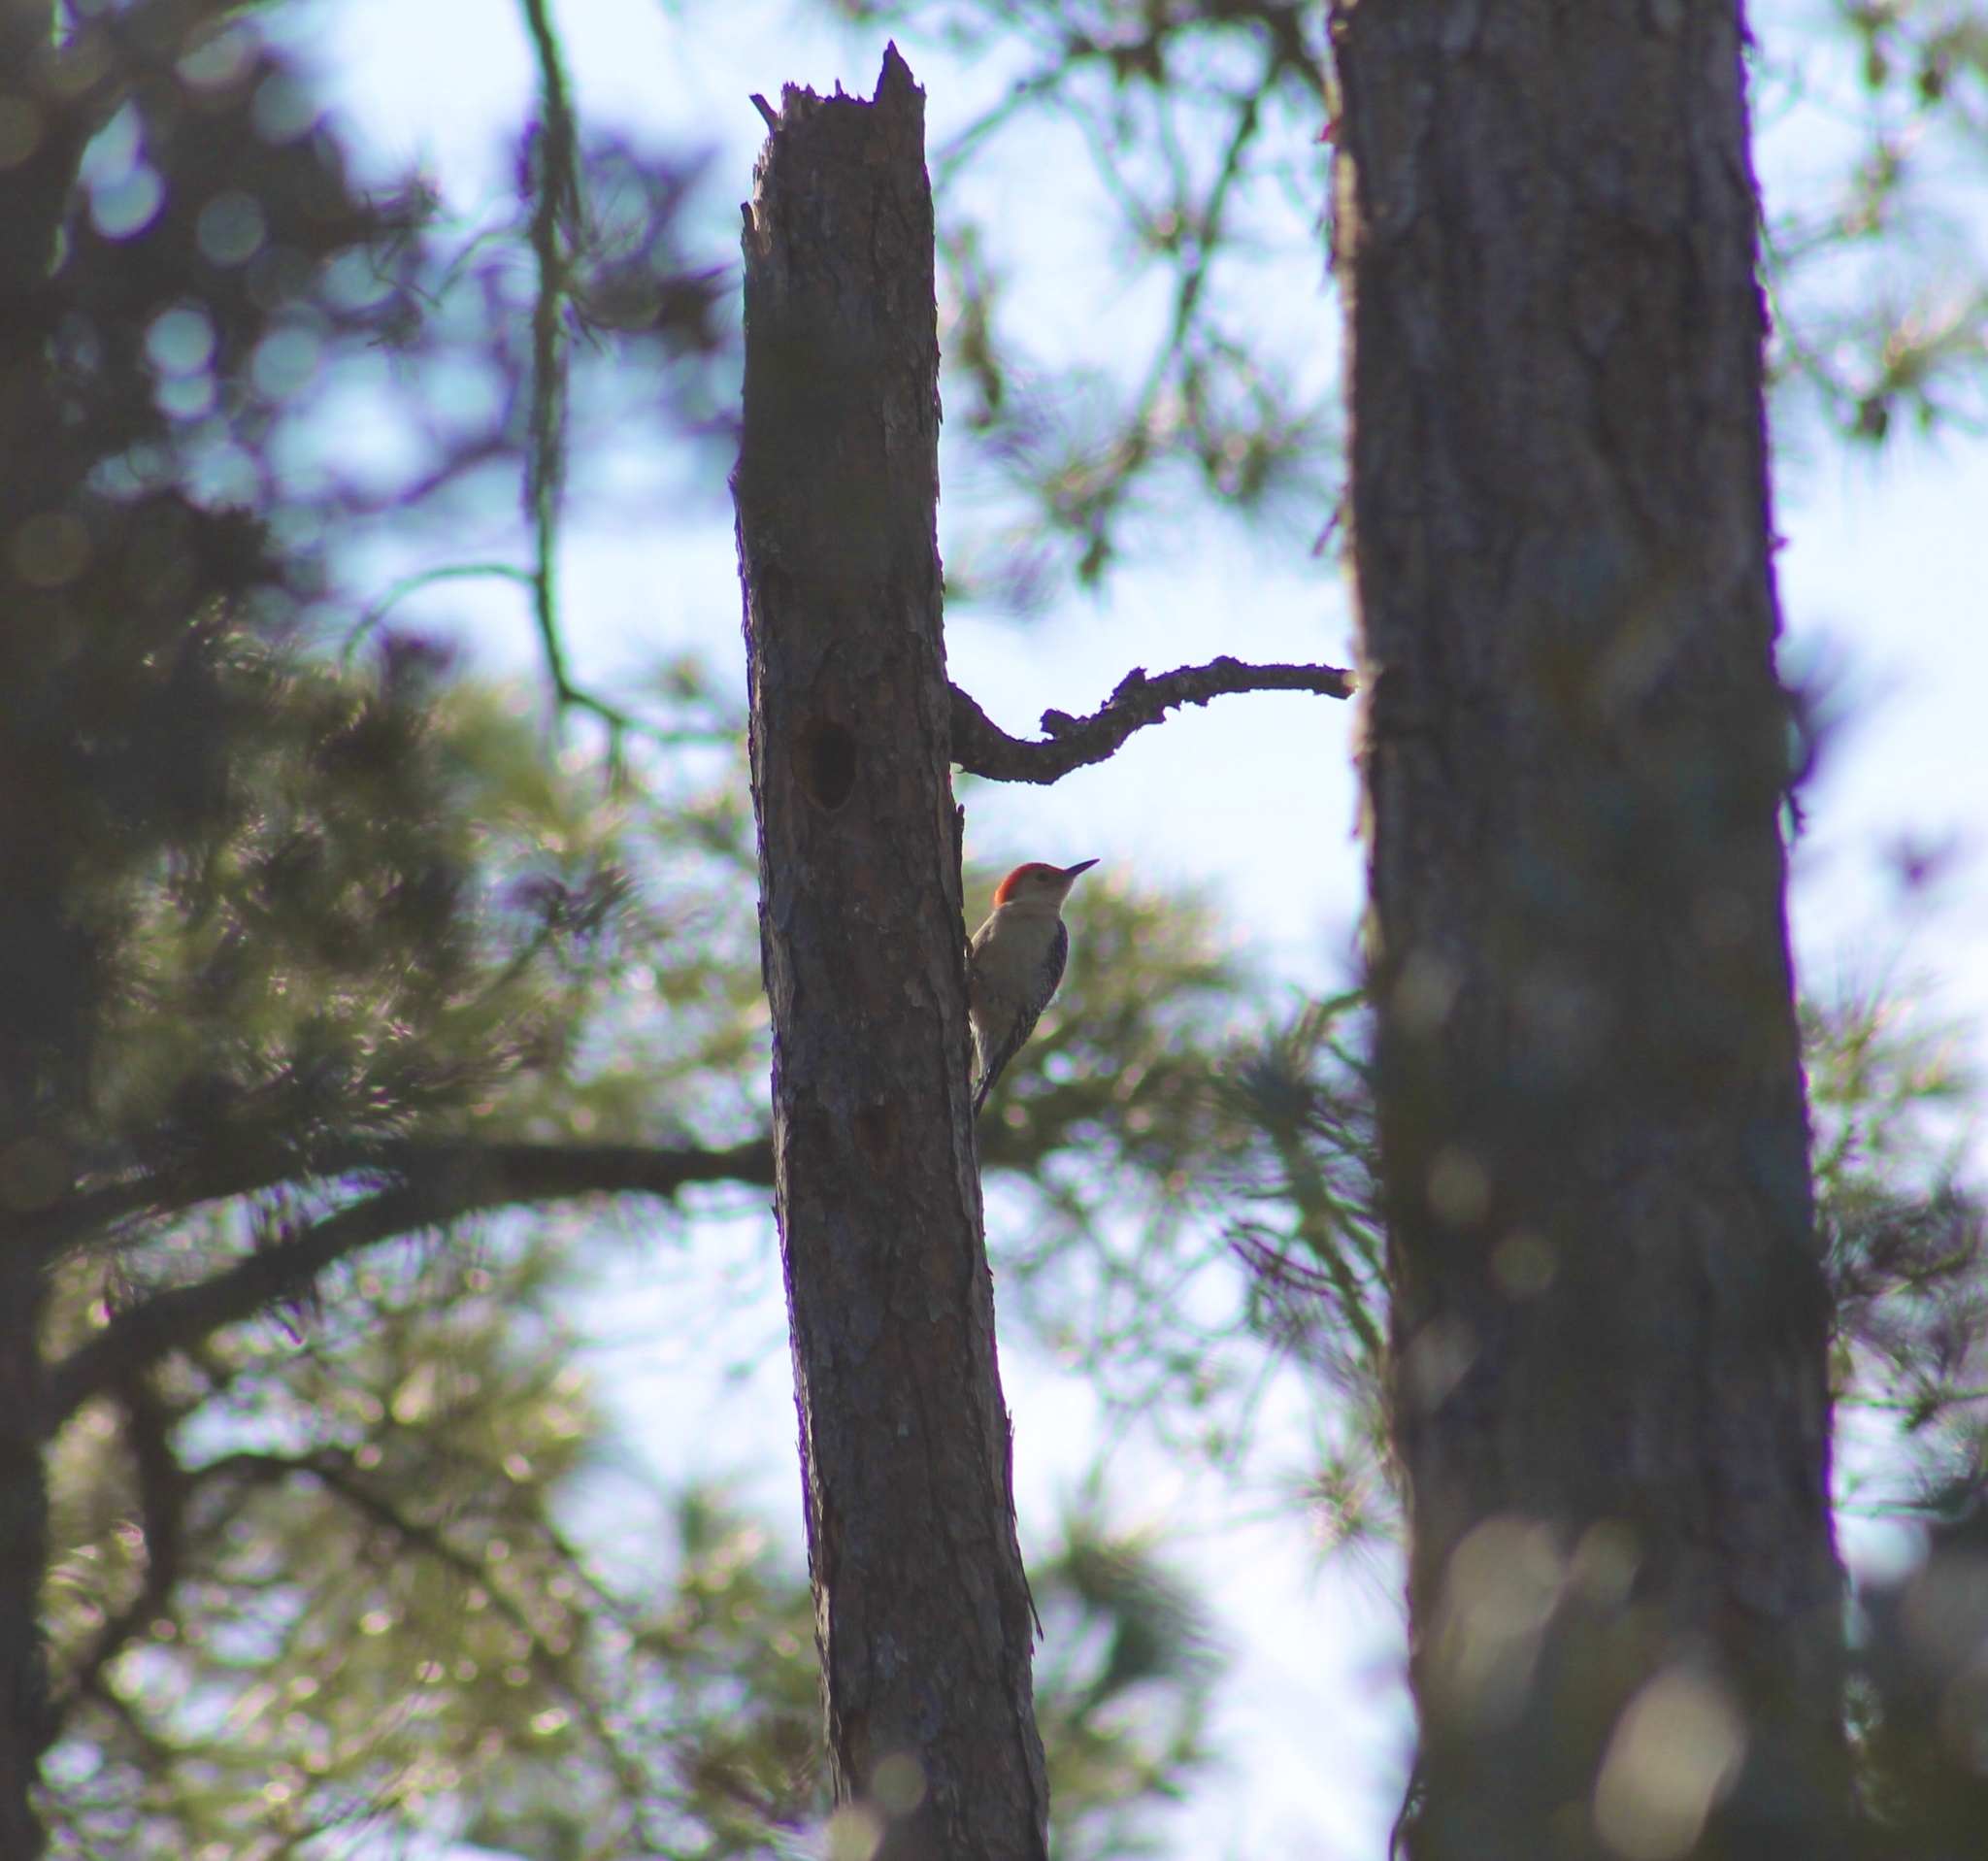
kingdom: Animalia
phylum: Chordata
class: Aves
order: Piciformes
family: Picidae
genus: Melanerpes
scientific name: Melanerpes carolinus
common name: Red-bellied woodpecker
